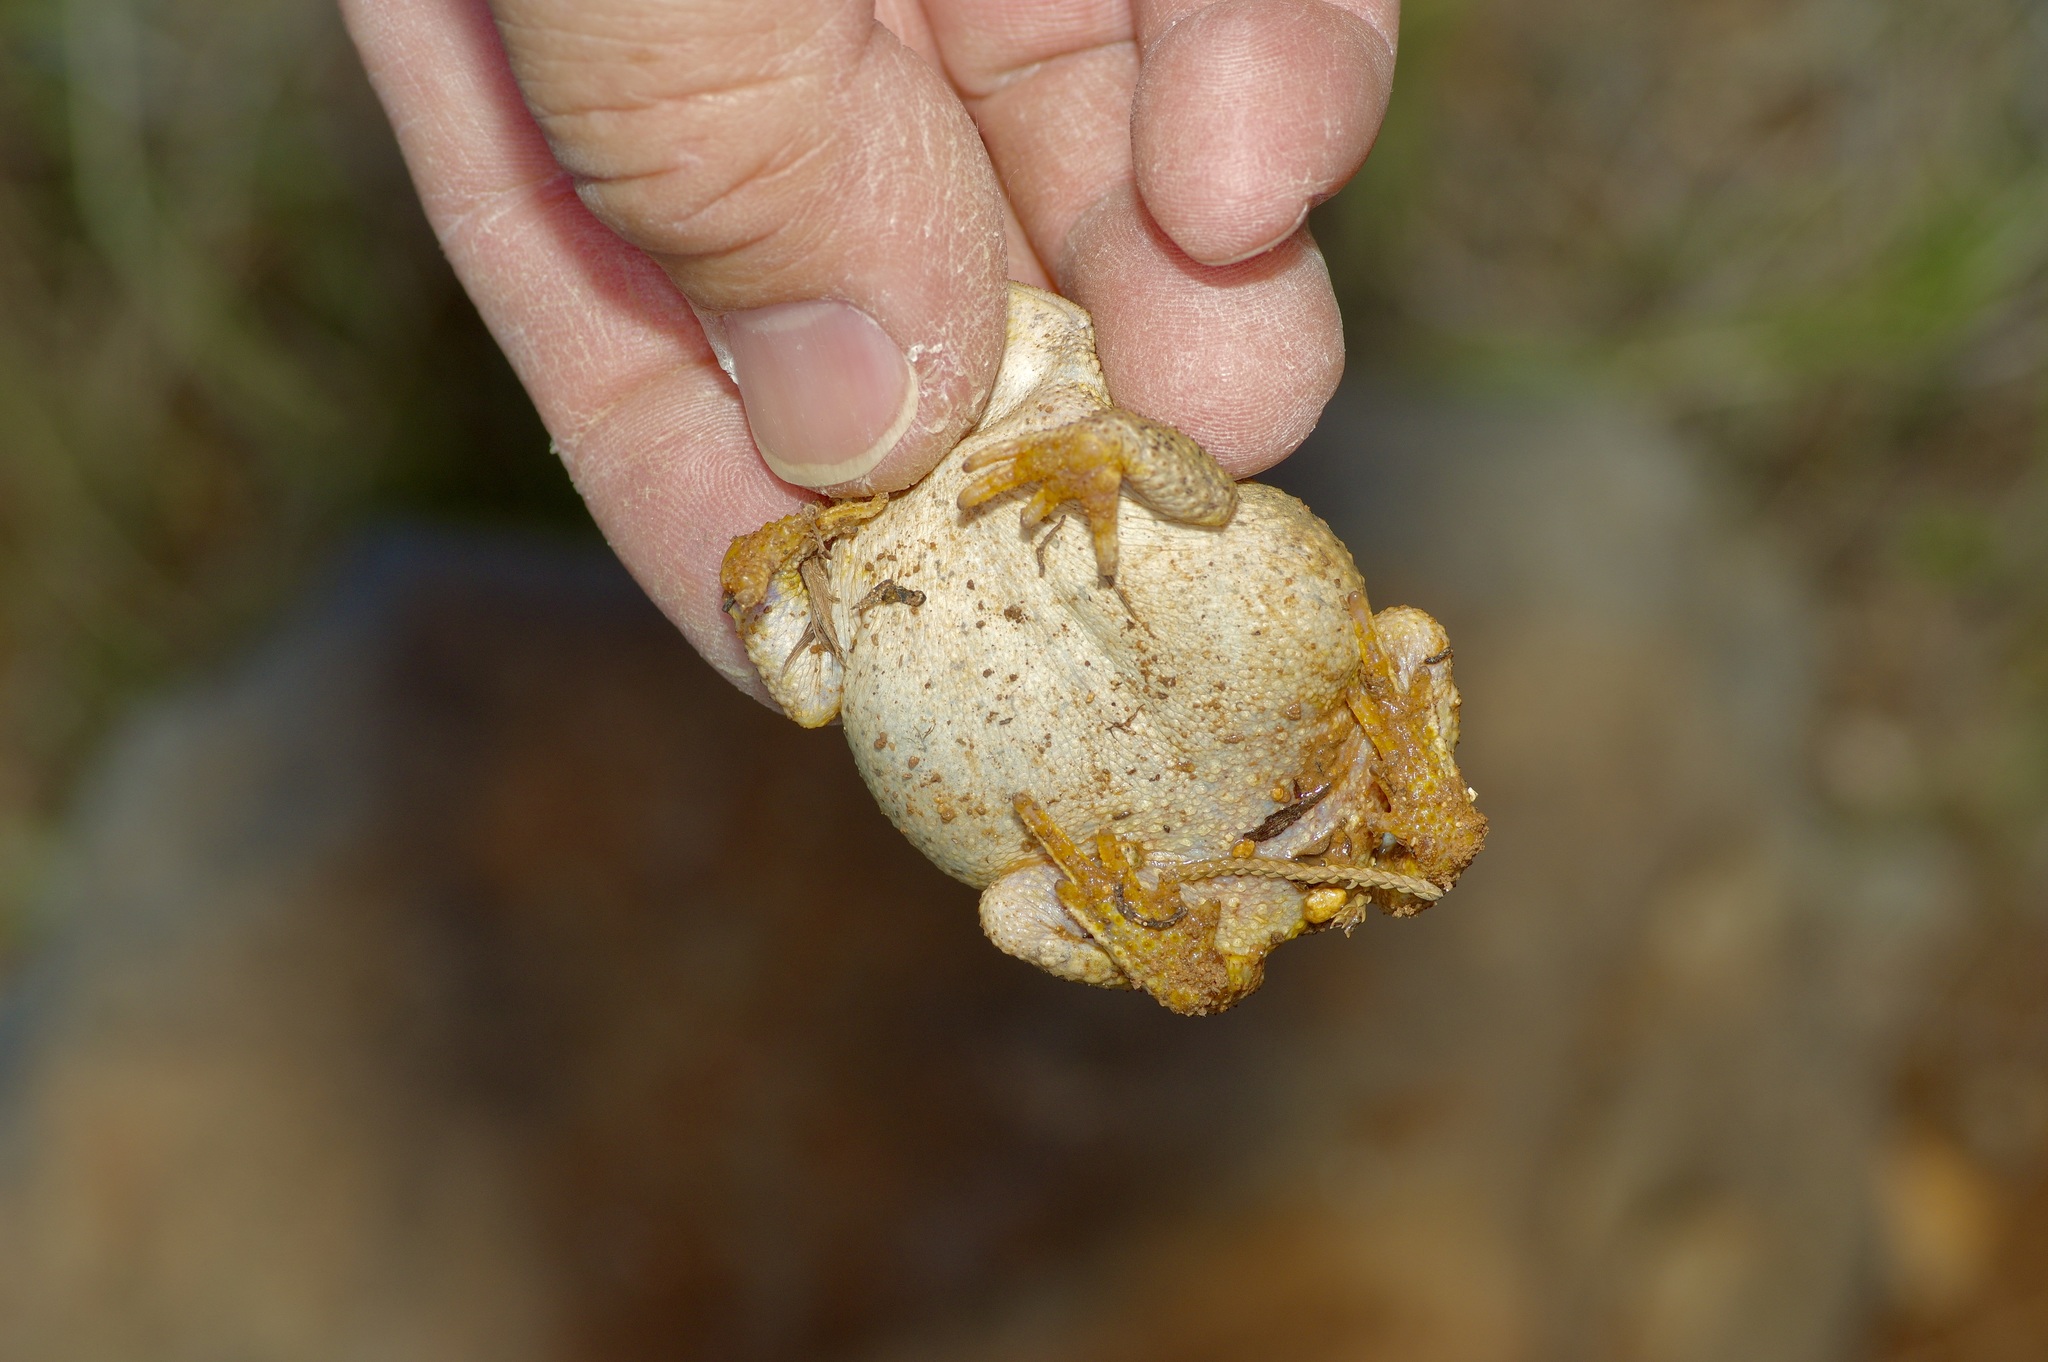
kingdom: Animalia
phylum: Chordata
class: Amphibia
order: Anura
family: Bufonidae
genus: Anaxyrus
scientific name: Anaxyrus punctatus
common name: Red-spotted toad
